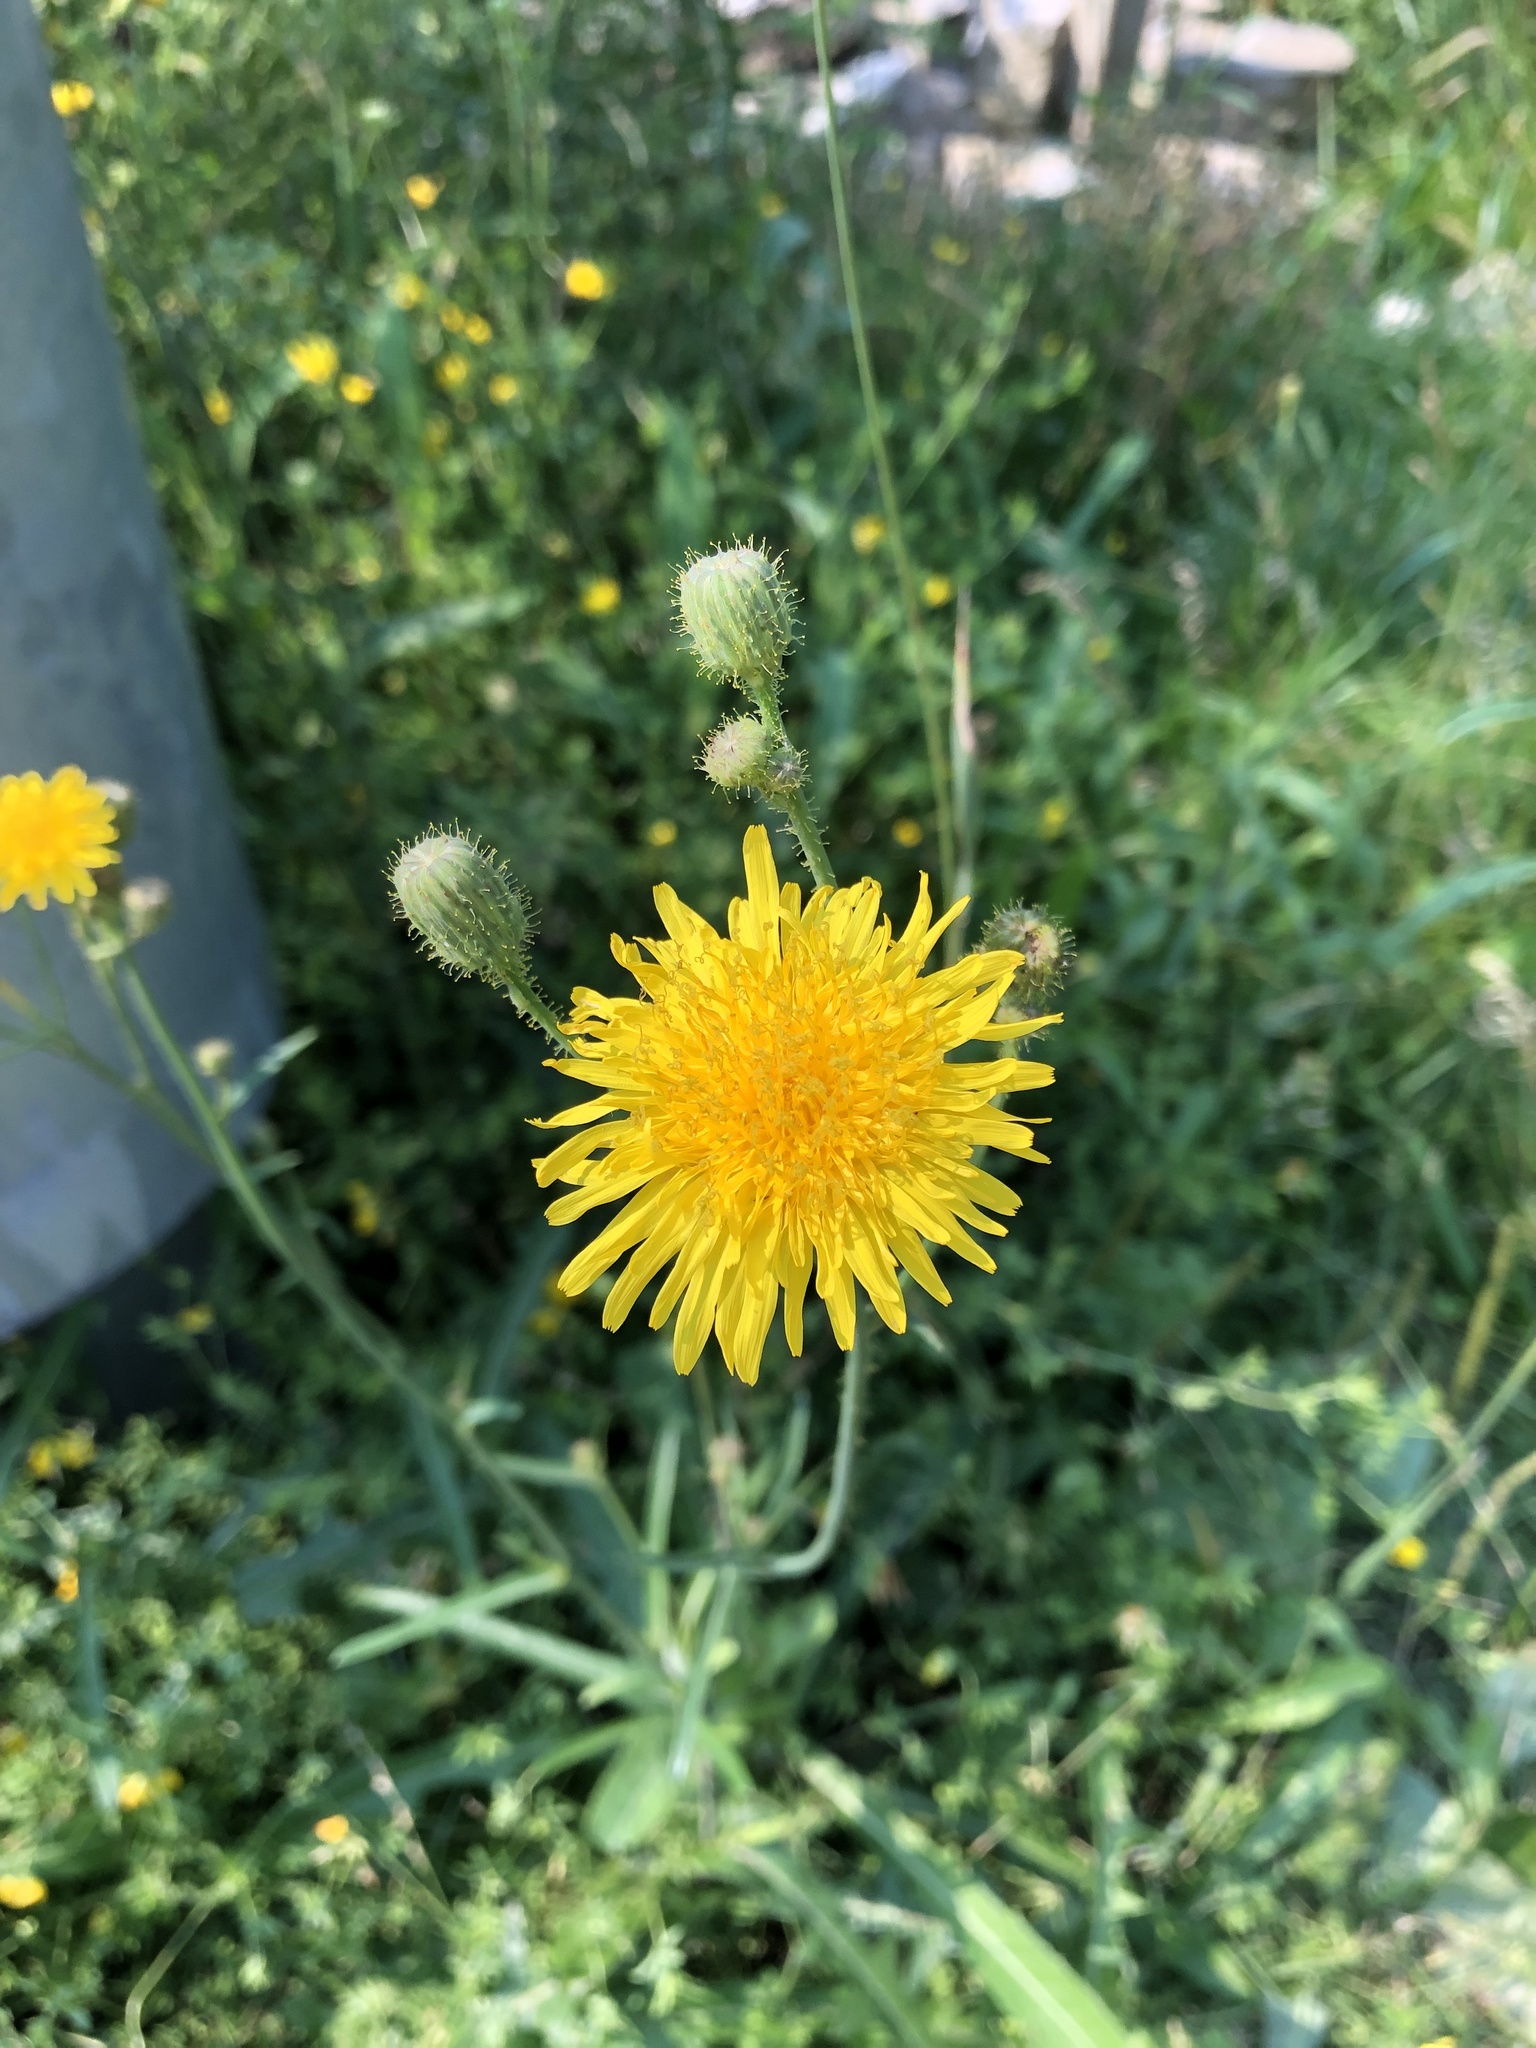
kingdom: Plantae
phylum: Tracheophyta
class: Magnoliopsida
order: Asterales
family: Asteraceae
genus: Sonchus
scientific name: Sonchus arvensis
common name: Perennial sow-thistle
